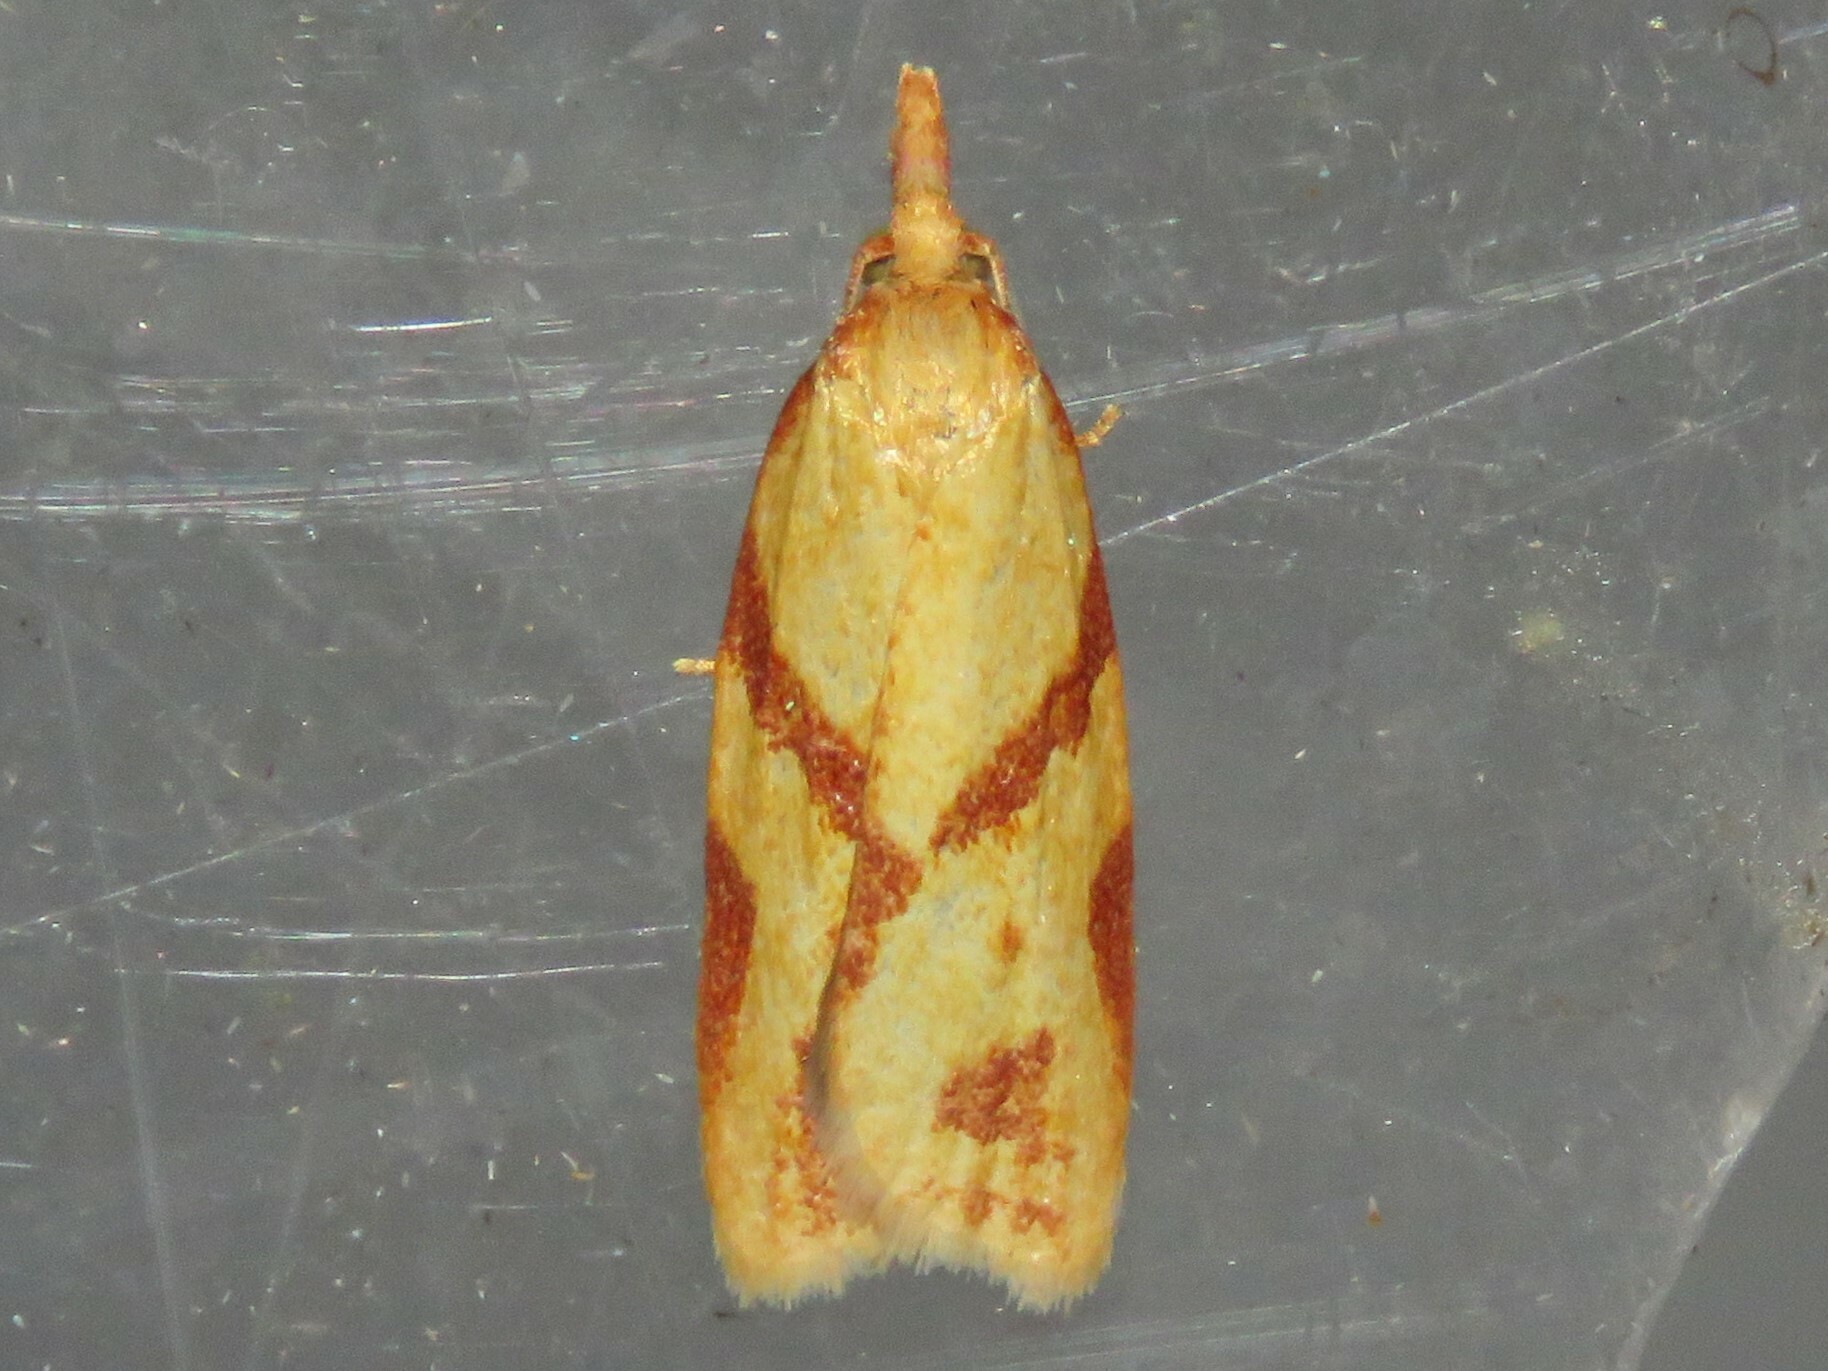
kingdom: Animalia
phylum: Arthropoda
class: Insecta
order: Lepidoptera
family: Tortricidae
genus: Sparganothis
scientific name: Sparganothis unifasciana
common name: One-lined sparganothis moth
